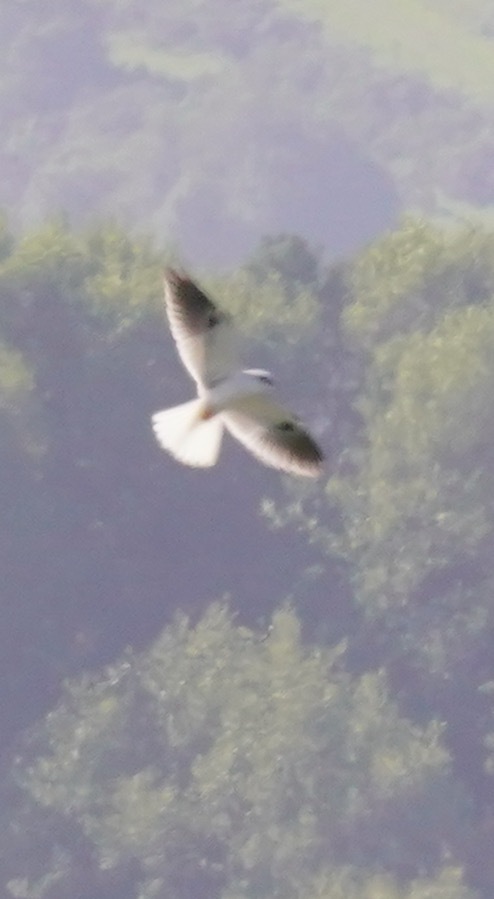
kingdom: Animalia
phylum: Chordata
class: Aves
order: Accipitriformes
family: Accipitridae
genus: Elanus
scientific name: Elanus leucurus
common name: White-tailed kite
